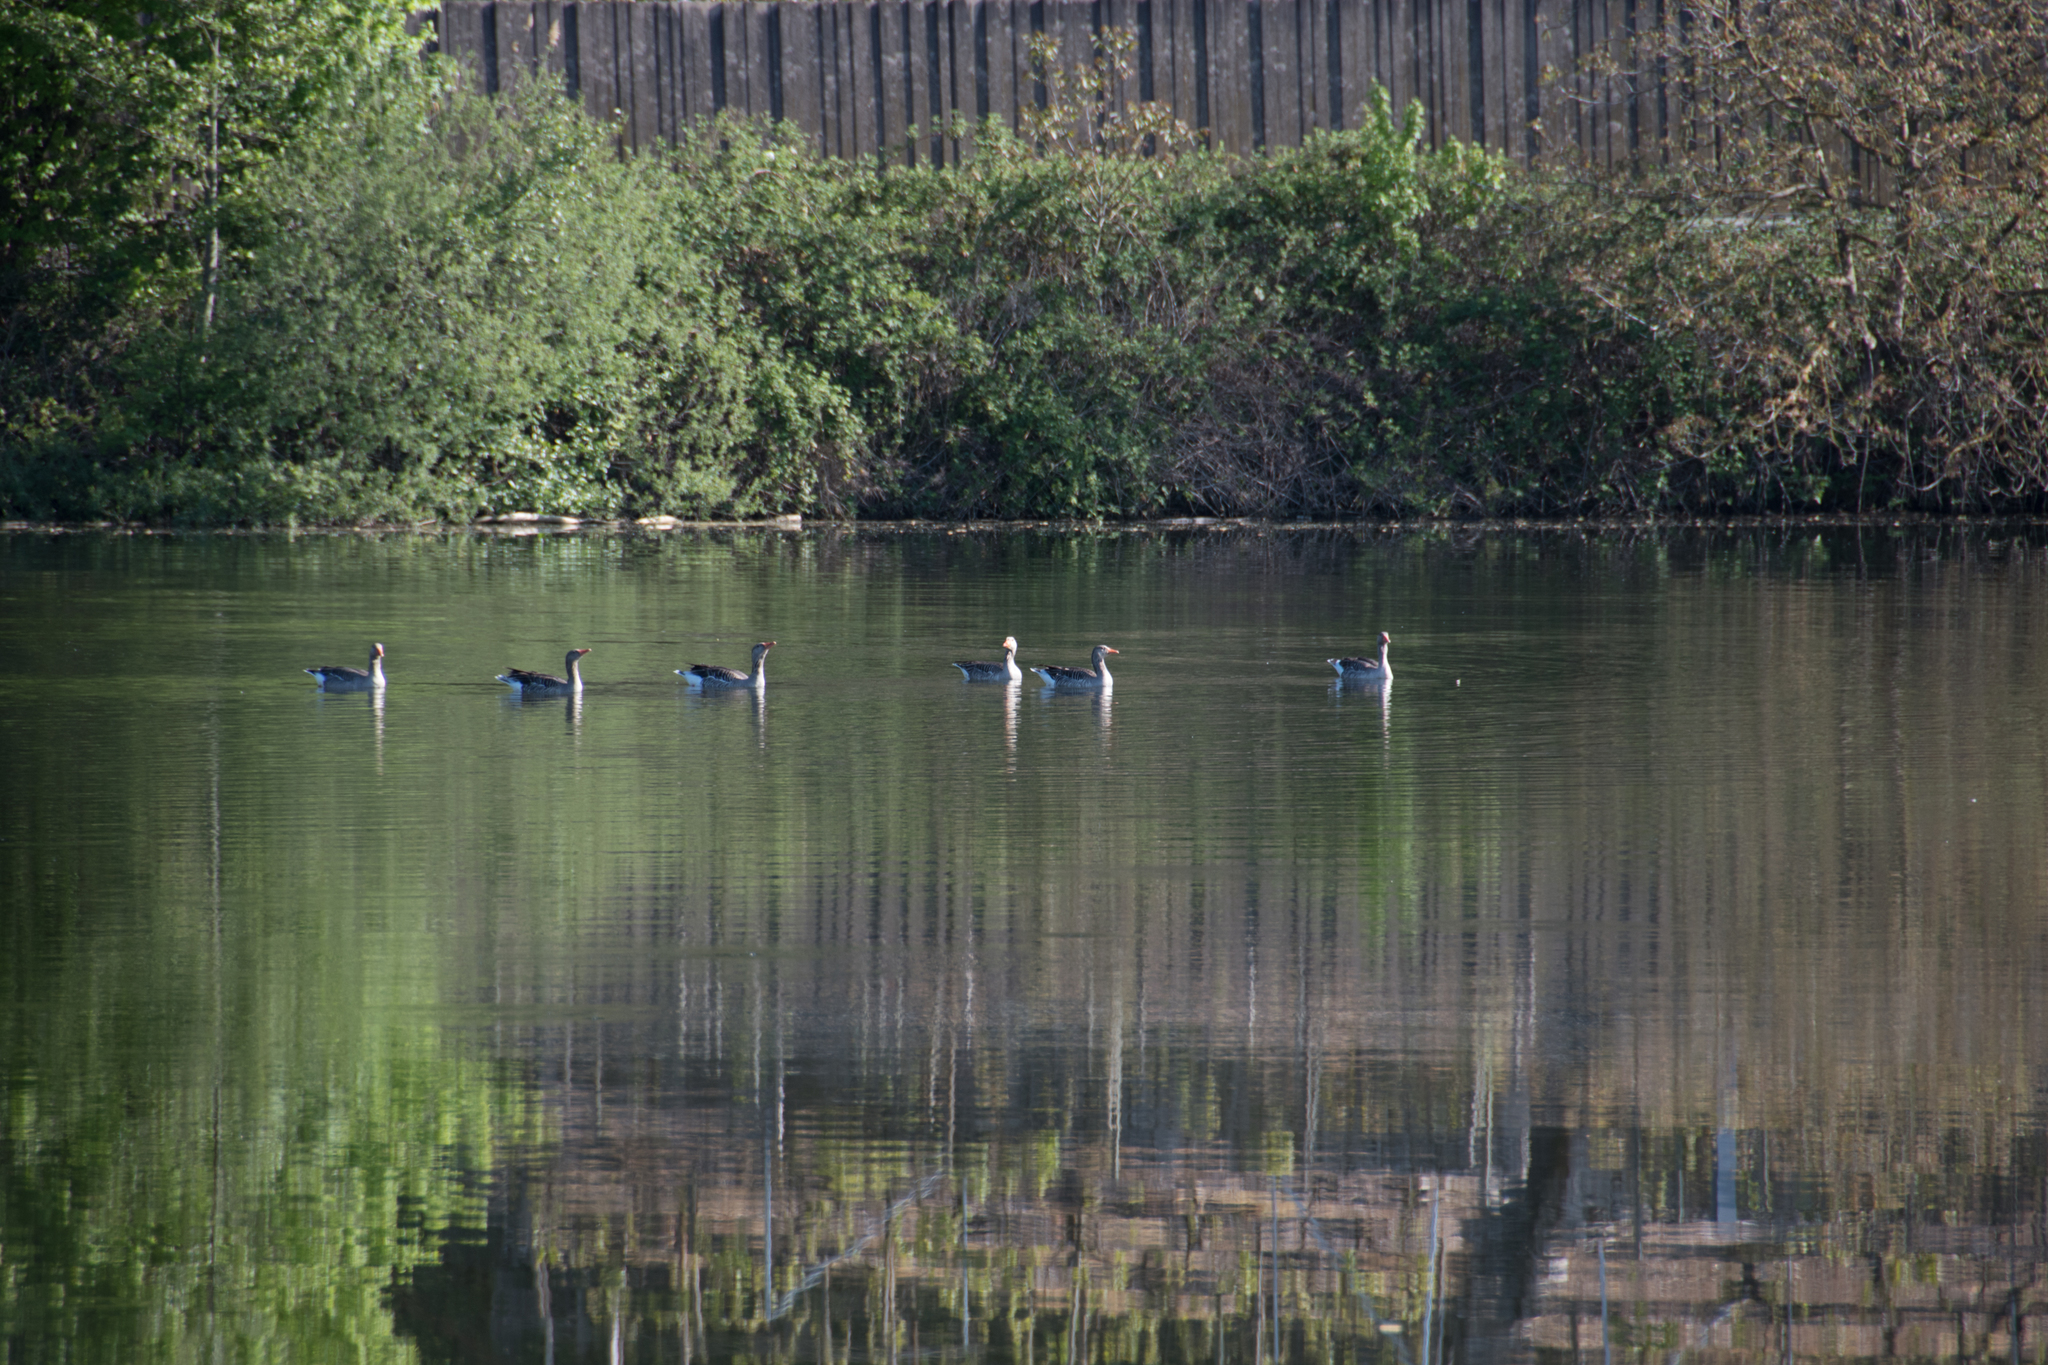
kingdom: Animalia
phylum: Chordata
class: Aves
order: Anseriformes
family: Anatidae
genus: Anser
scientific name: Anser anser
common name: Greylag goose
